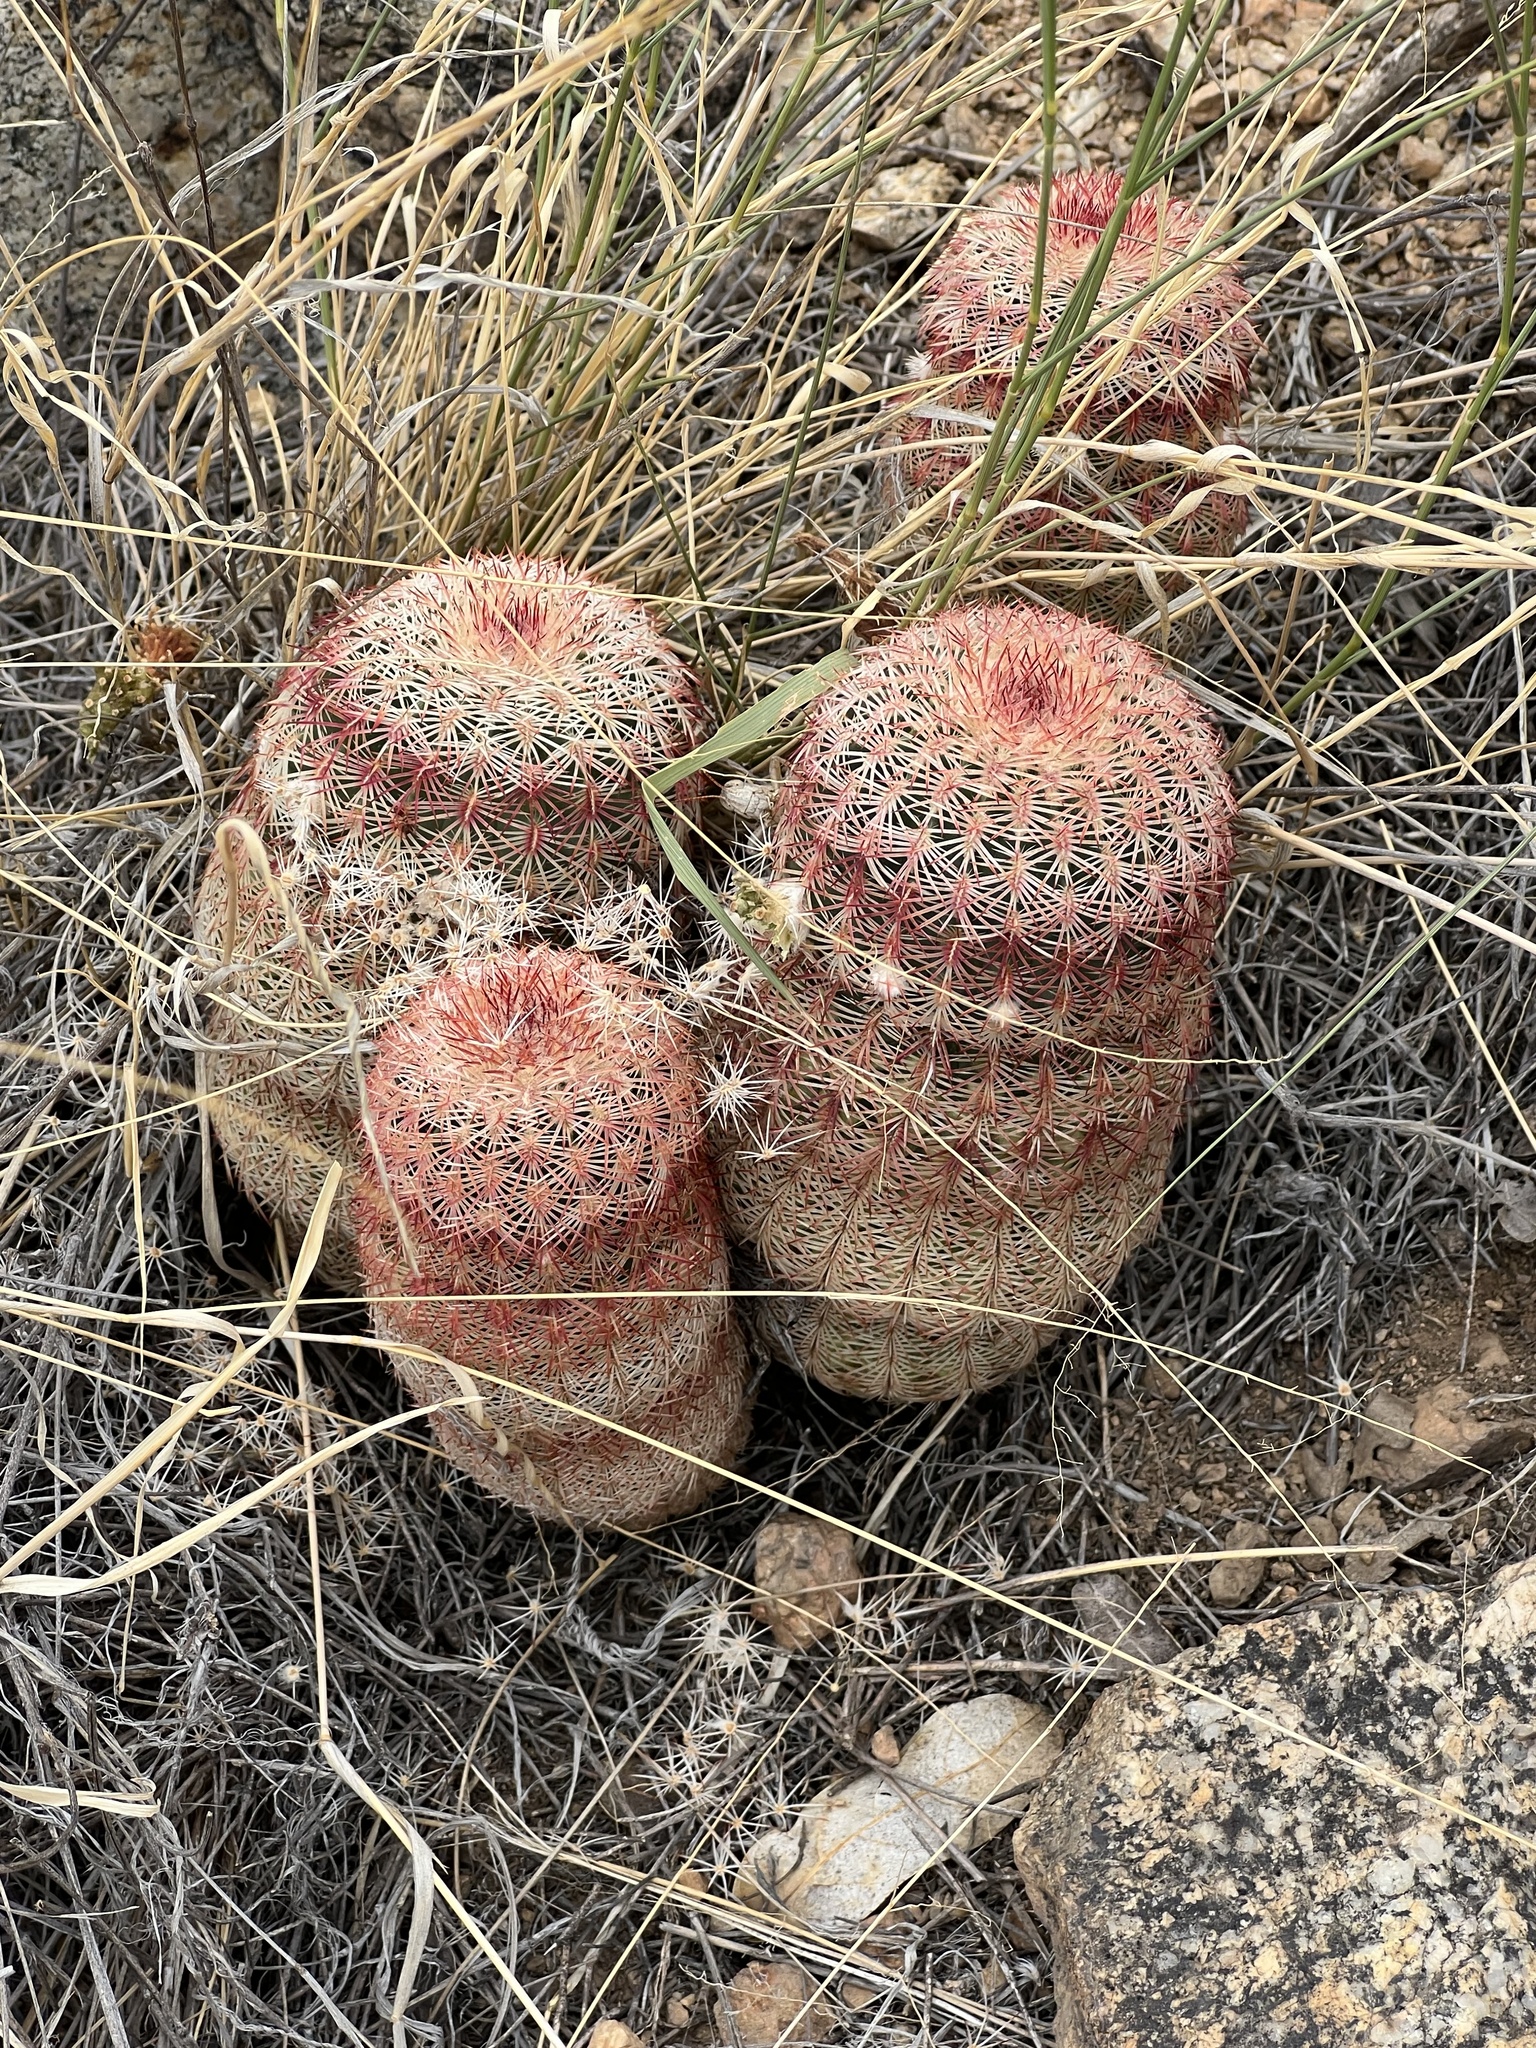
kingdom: Plantae
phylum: Tracheophyta
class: Magnoliopsida
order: Caryophyllales
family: Cactaceae
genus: Echinocereus
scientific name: Echinocereus rigidissimus
